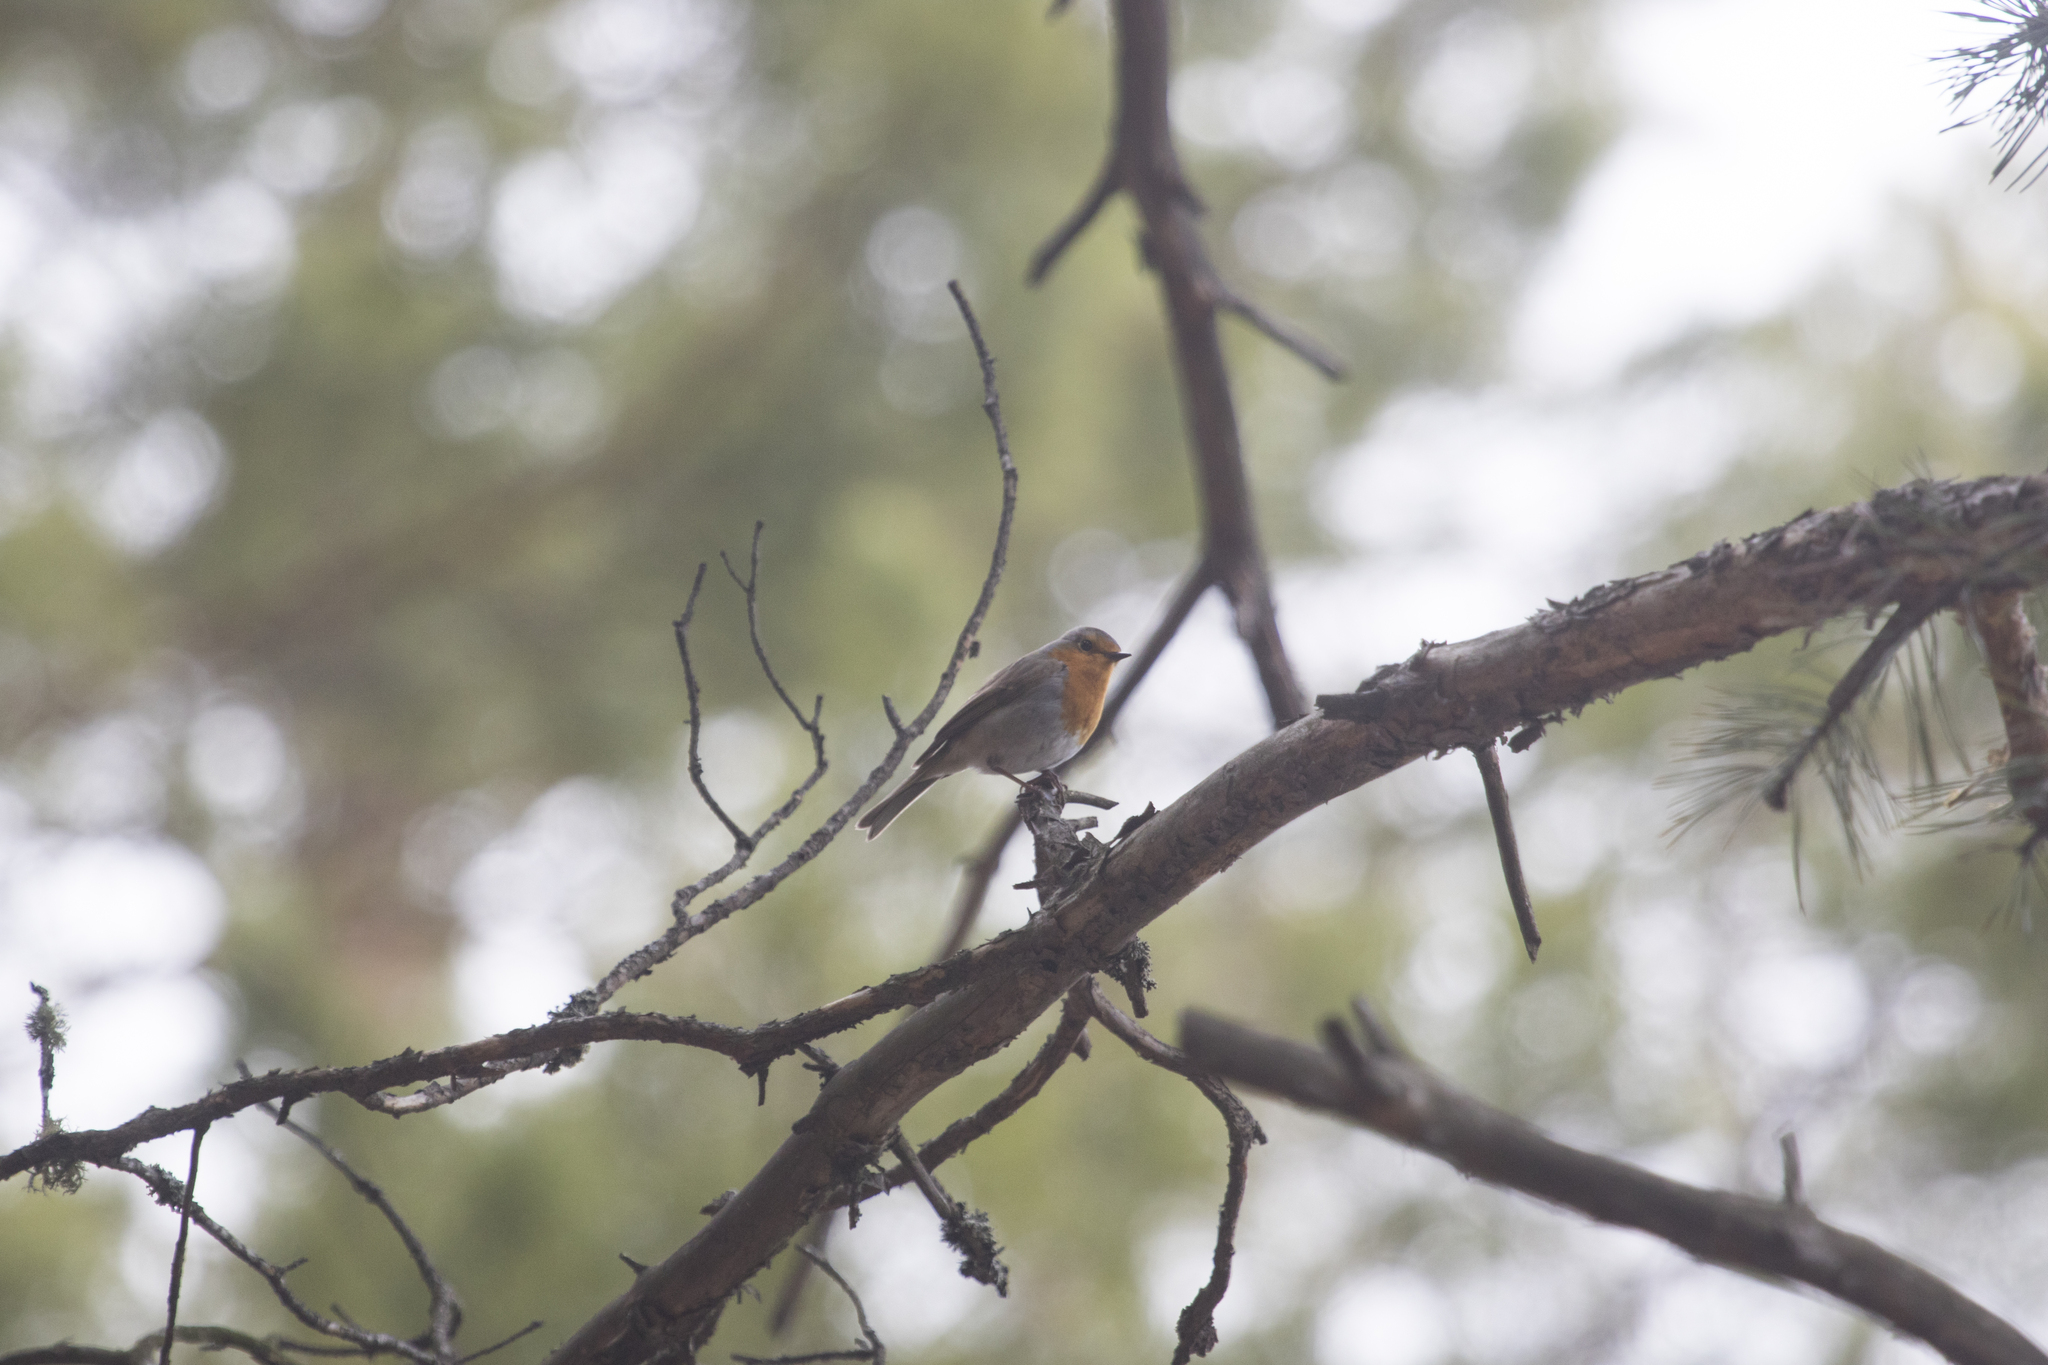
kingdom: Animalia
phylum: Chordata
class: Aves
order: Passeriformes
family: Muscicapidae
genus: Erithacus
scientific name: Erithacus rubecula
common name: European robin
